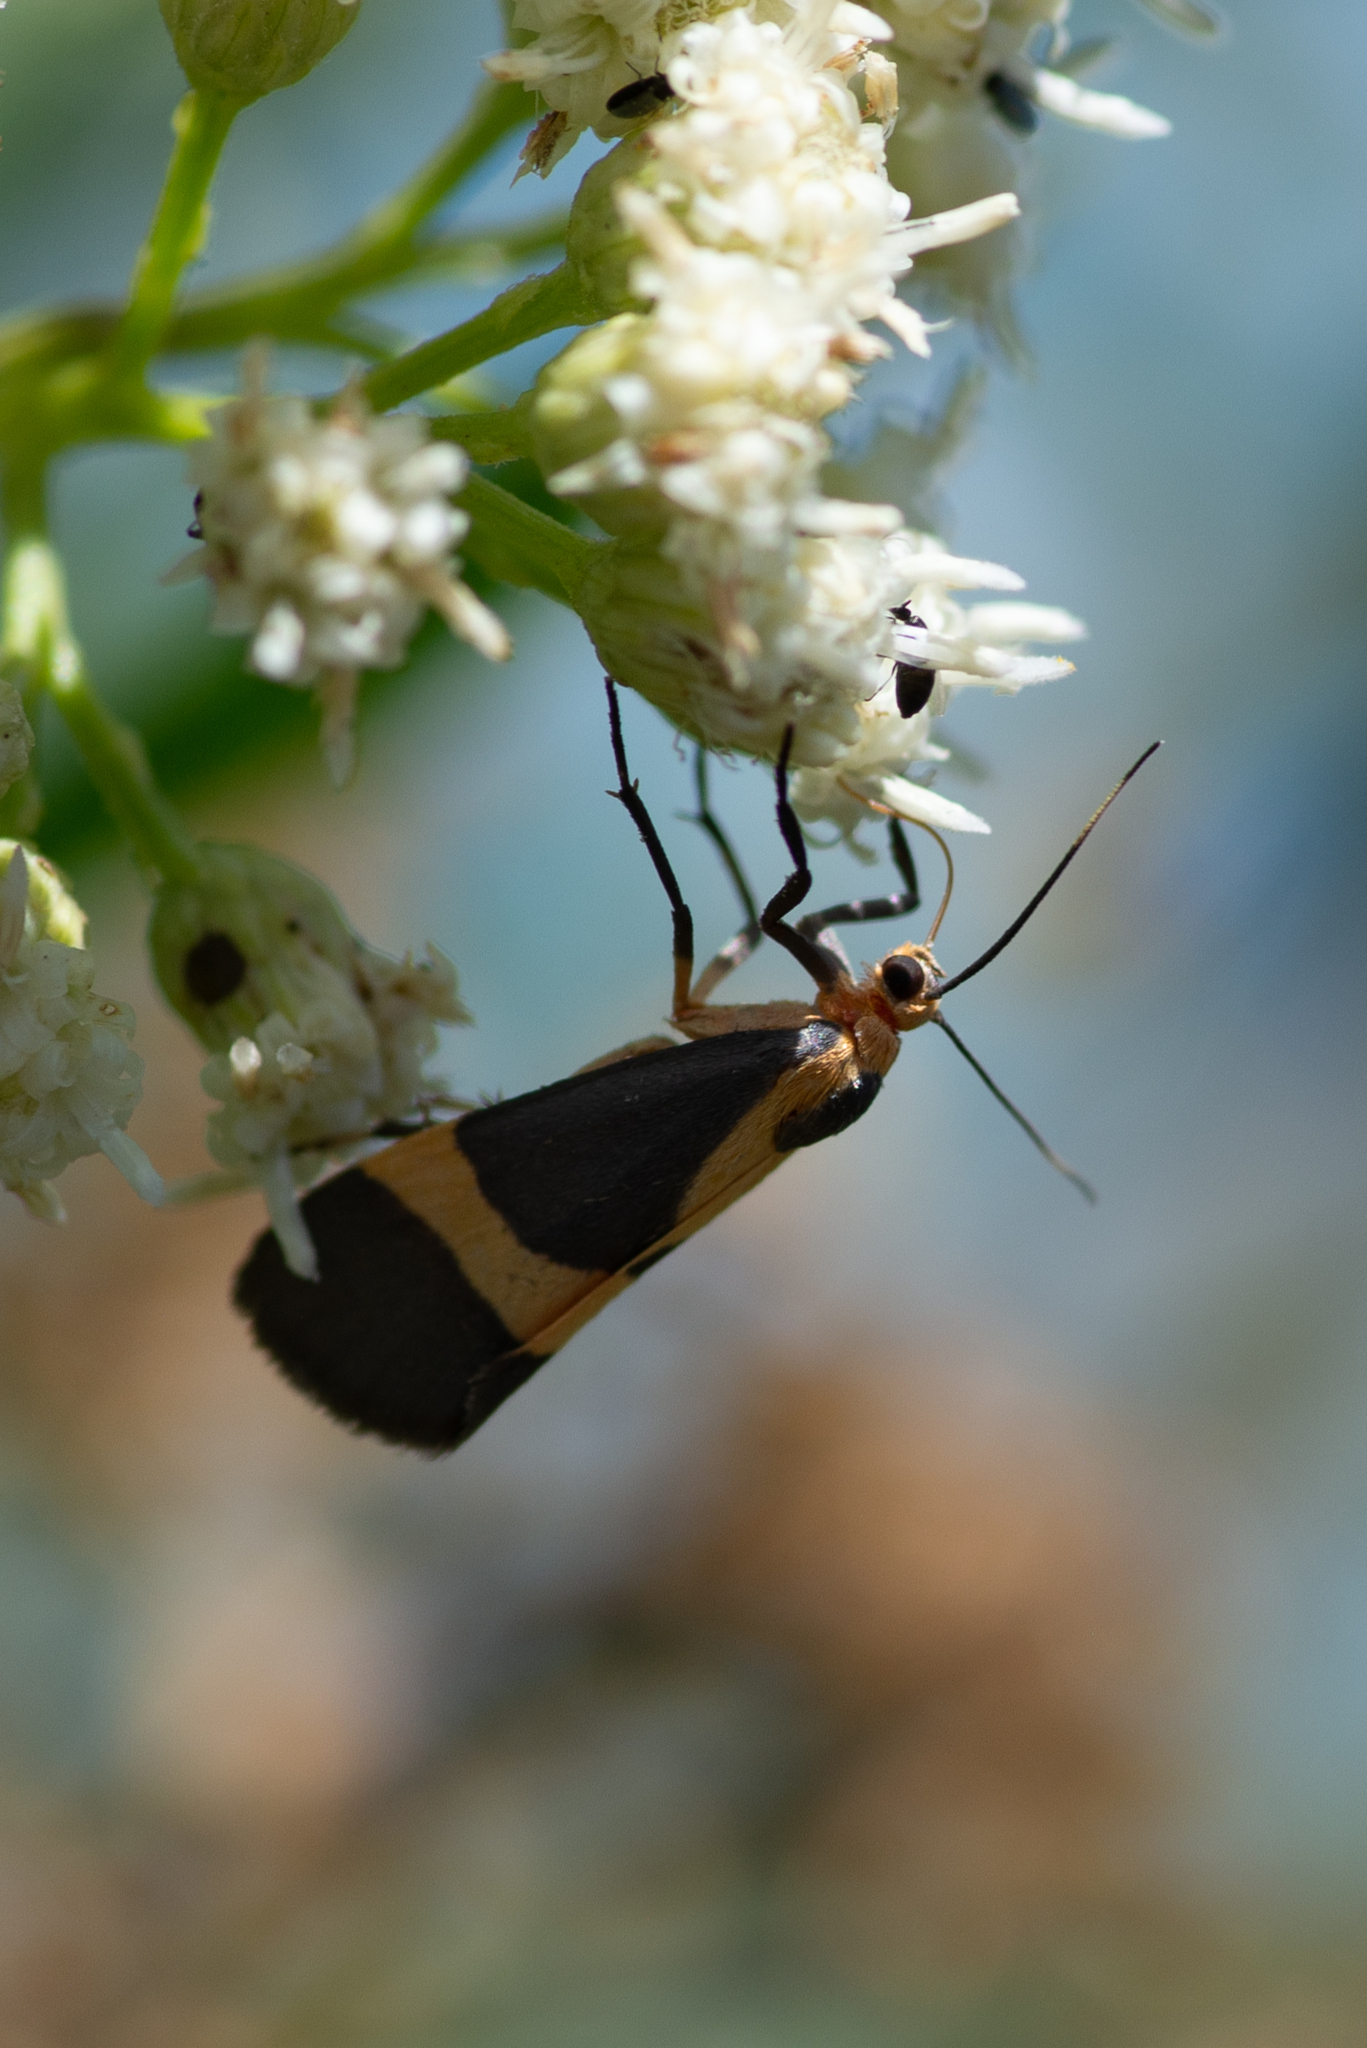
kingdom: Animalia
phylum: Arthropoda
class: Insecta
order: Lepidoptera
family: Erebidae
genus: Cisthene
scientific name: Cisthene tenuifascia
